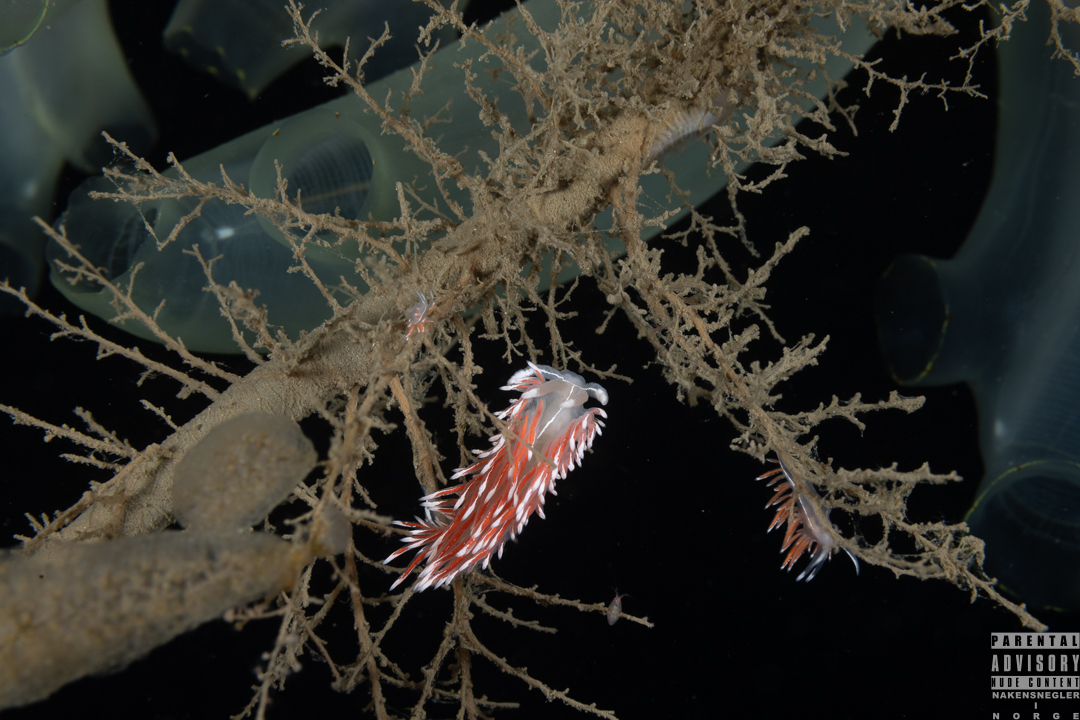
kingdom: Animalia
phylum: Mollusca
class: Gastropoda
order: Nudibranchia
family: Coryphellidae
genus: Coryphella
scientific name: Coryphella lineata
